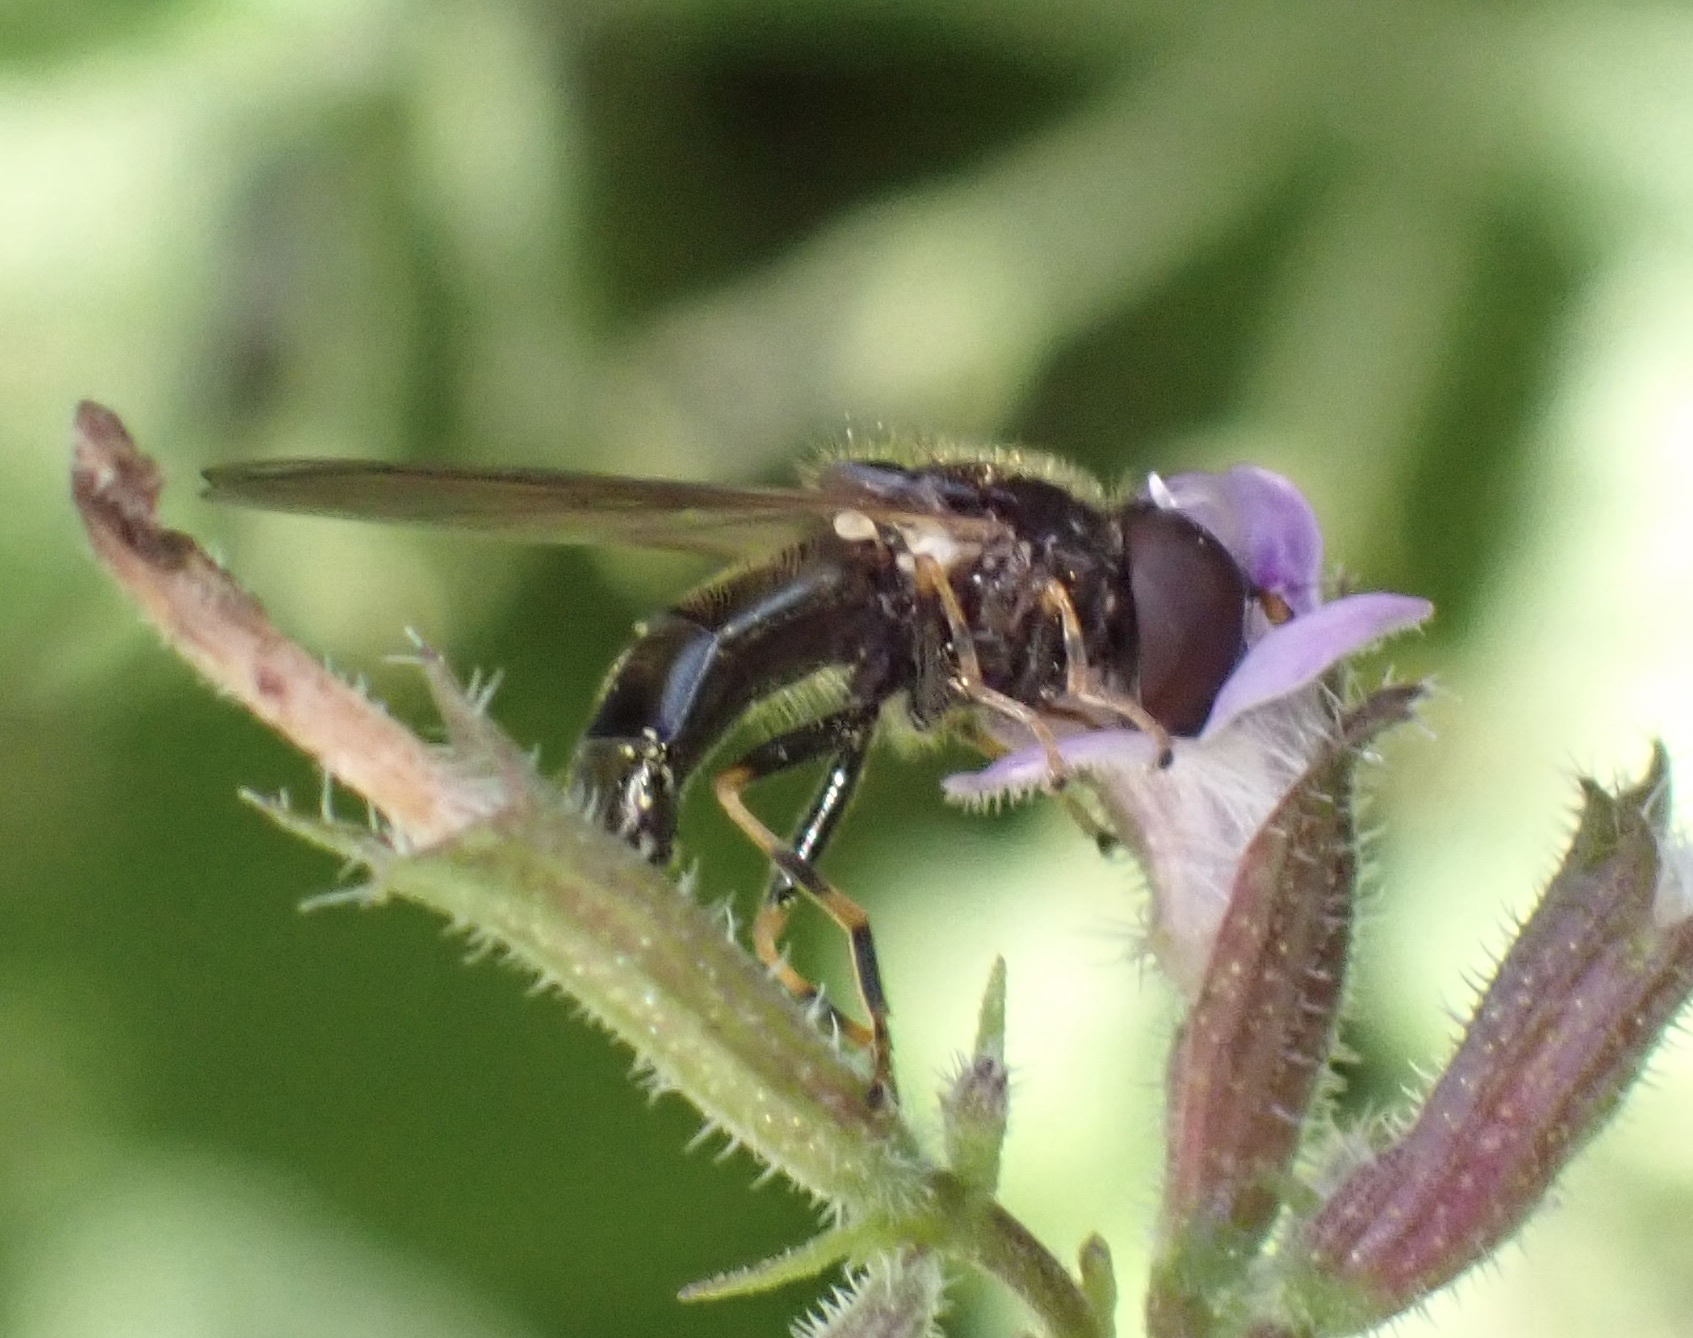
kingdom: Animalia
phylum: Arthropoda
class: Insecta
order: Diptera
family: Syrphidae
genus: Cheilosia
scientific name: Cheilosia pagana
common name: Hover fly
